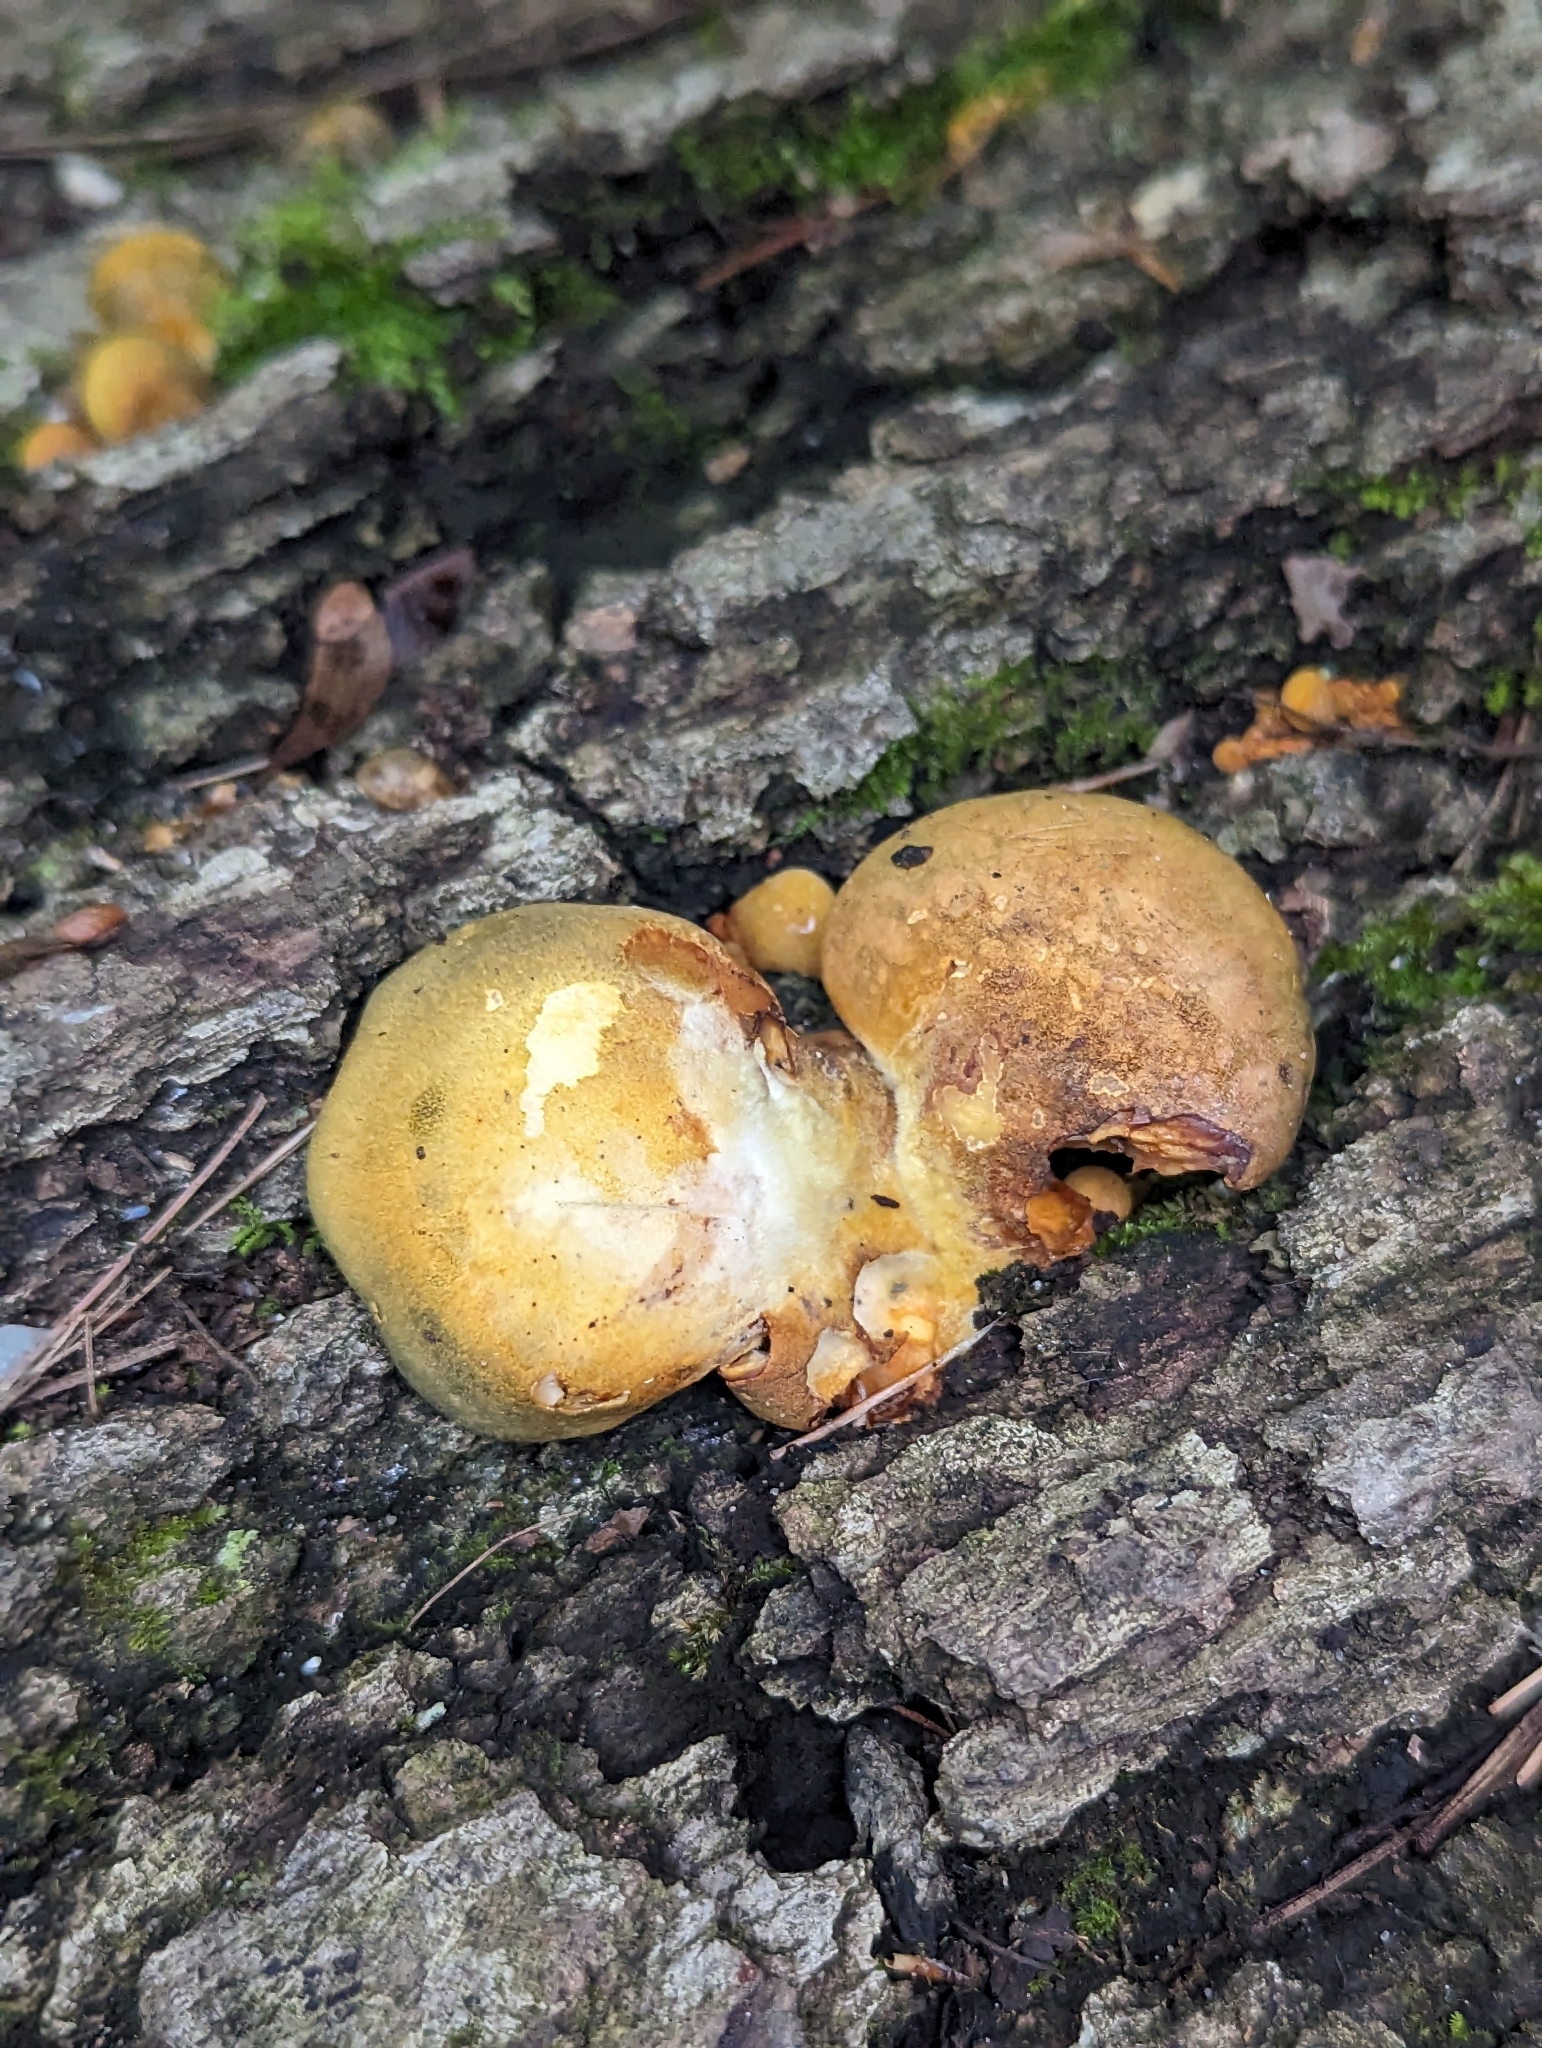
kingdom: Fungi
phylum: Basidiomycota
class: Agaricomycetes
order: Agaricales
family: Sarcomyxaceae
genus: Sarcomyxa
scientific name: Sarcomyxa serotina
